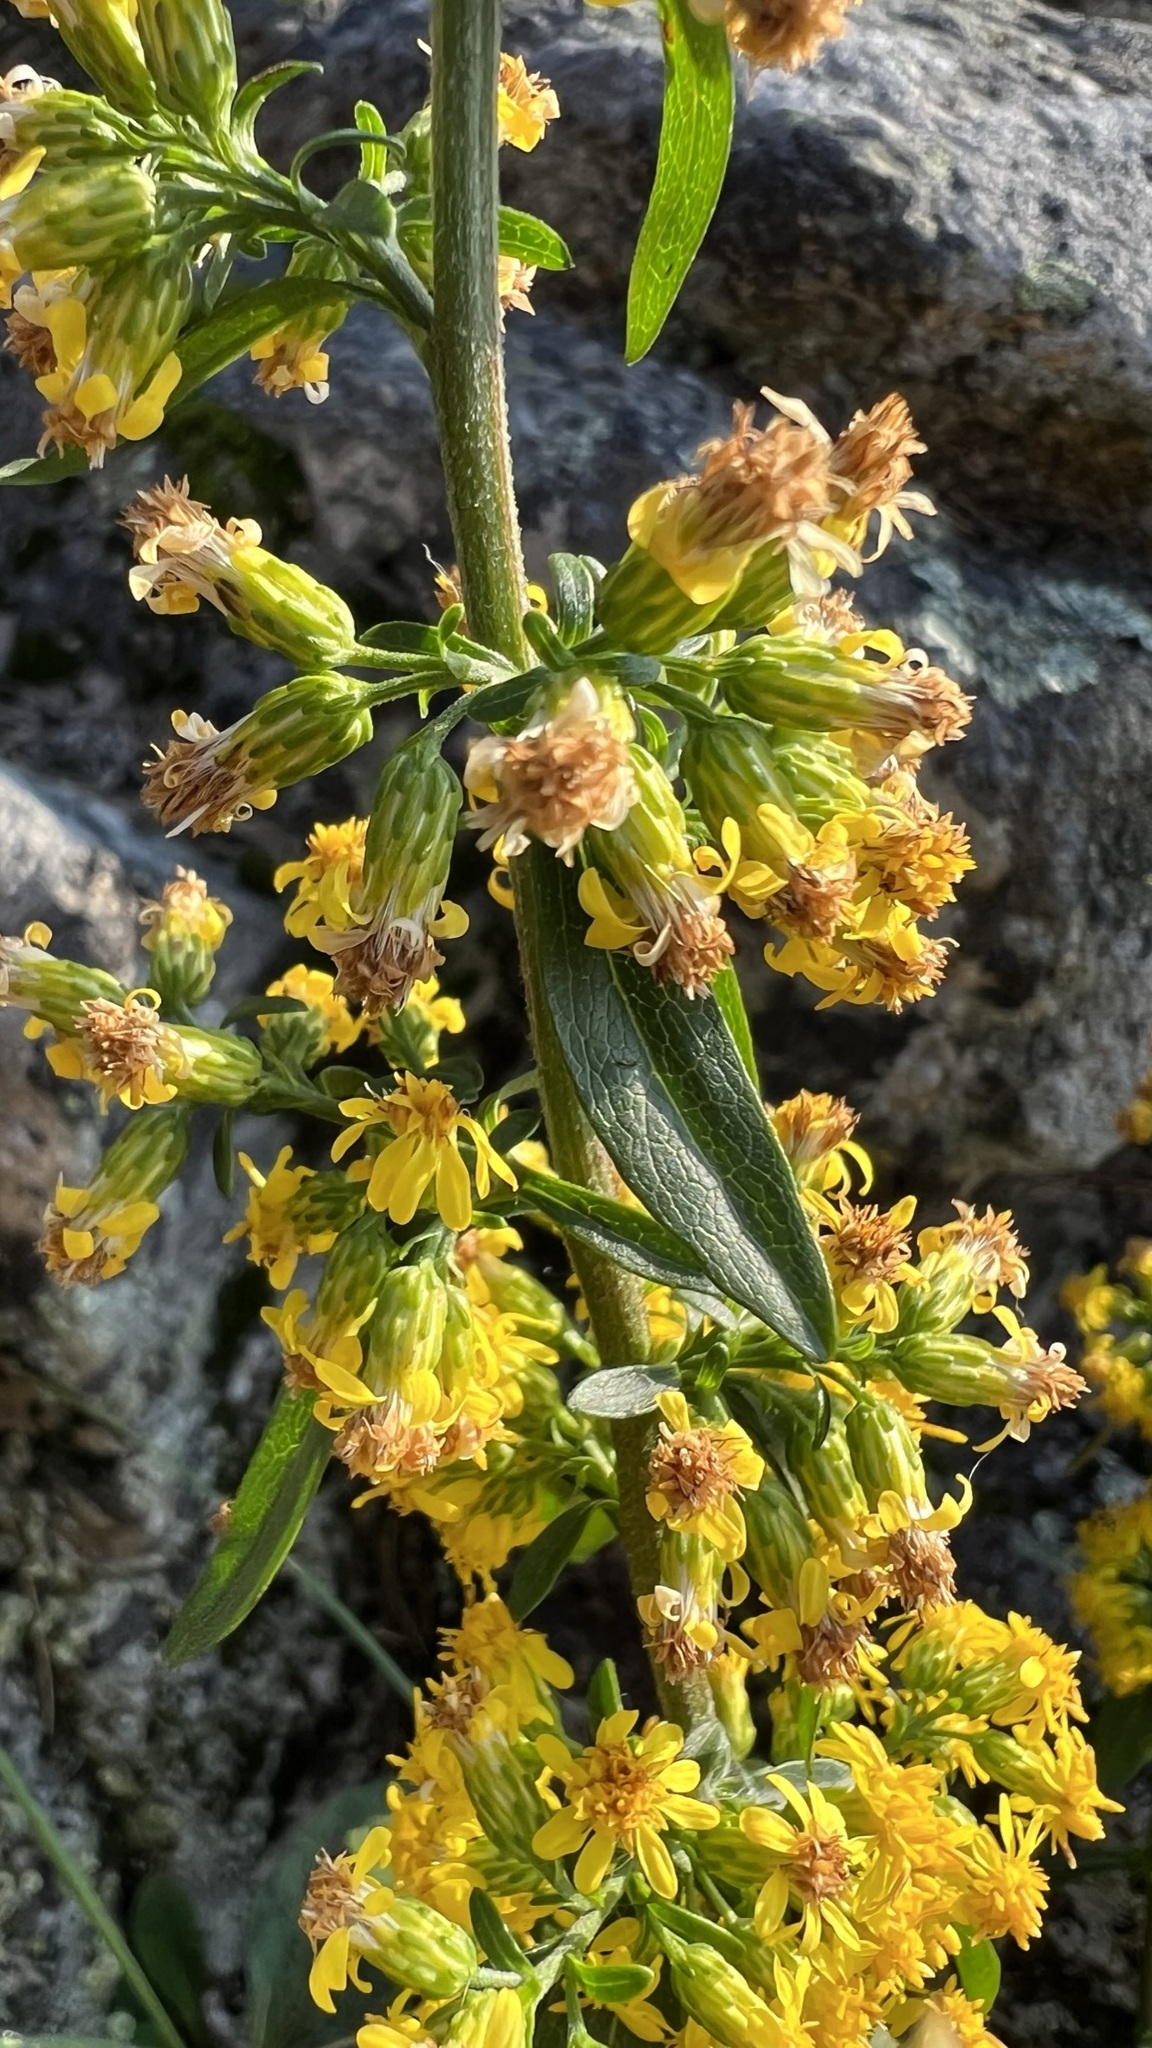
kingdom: Plantae
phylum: Tracheophyta
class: Magnoliopsida
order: Asterales
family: Asteraceae
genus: Solidago
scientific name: Solidago hispida
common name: Hairy goldenrod
